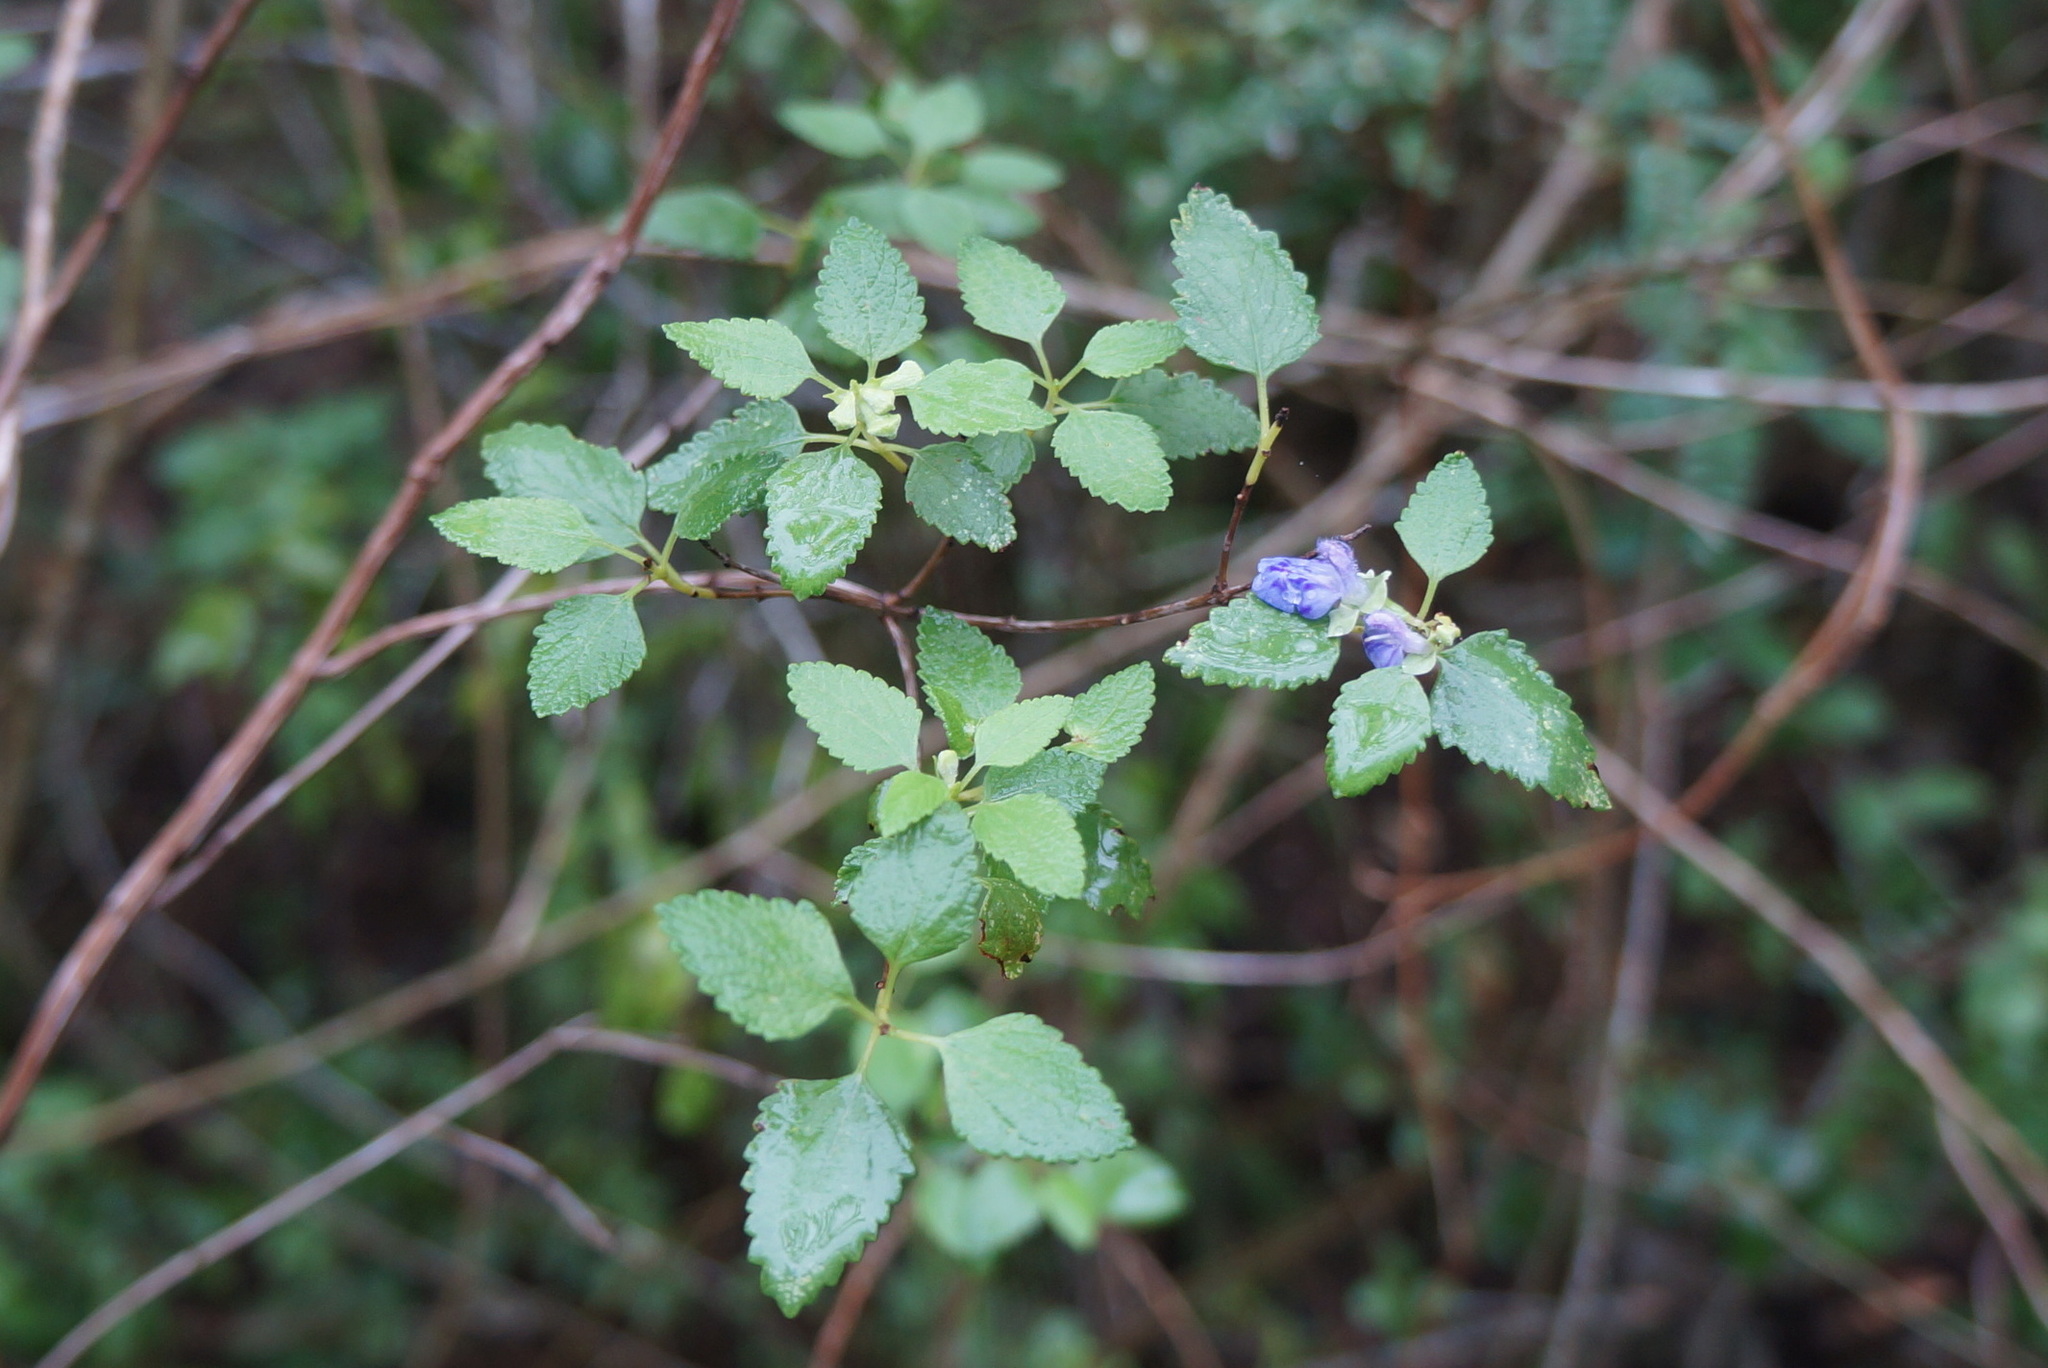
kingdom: Plantae
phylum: Tracheophyta
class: Magnoliopsida
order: Lamiales
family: Lamiaceae
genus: Salvia
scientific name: Salvia ballotiflora
